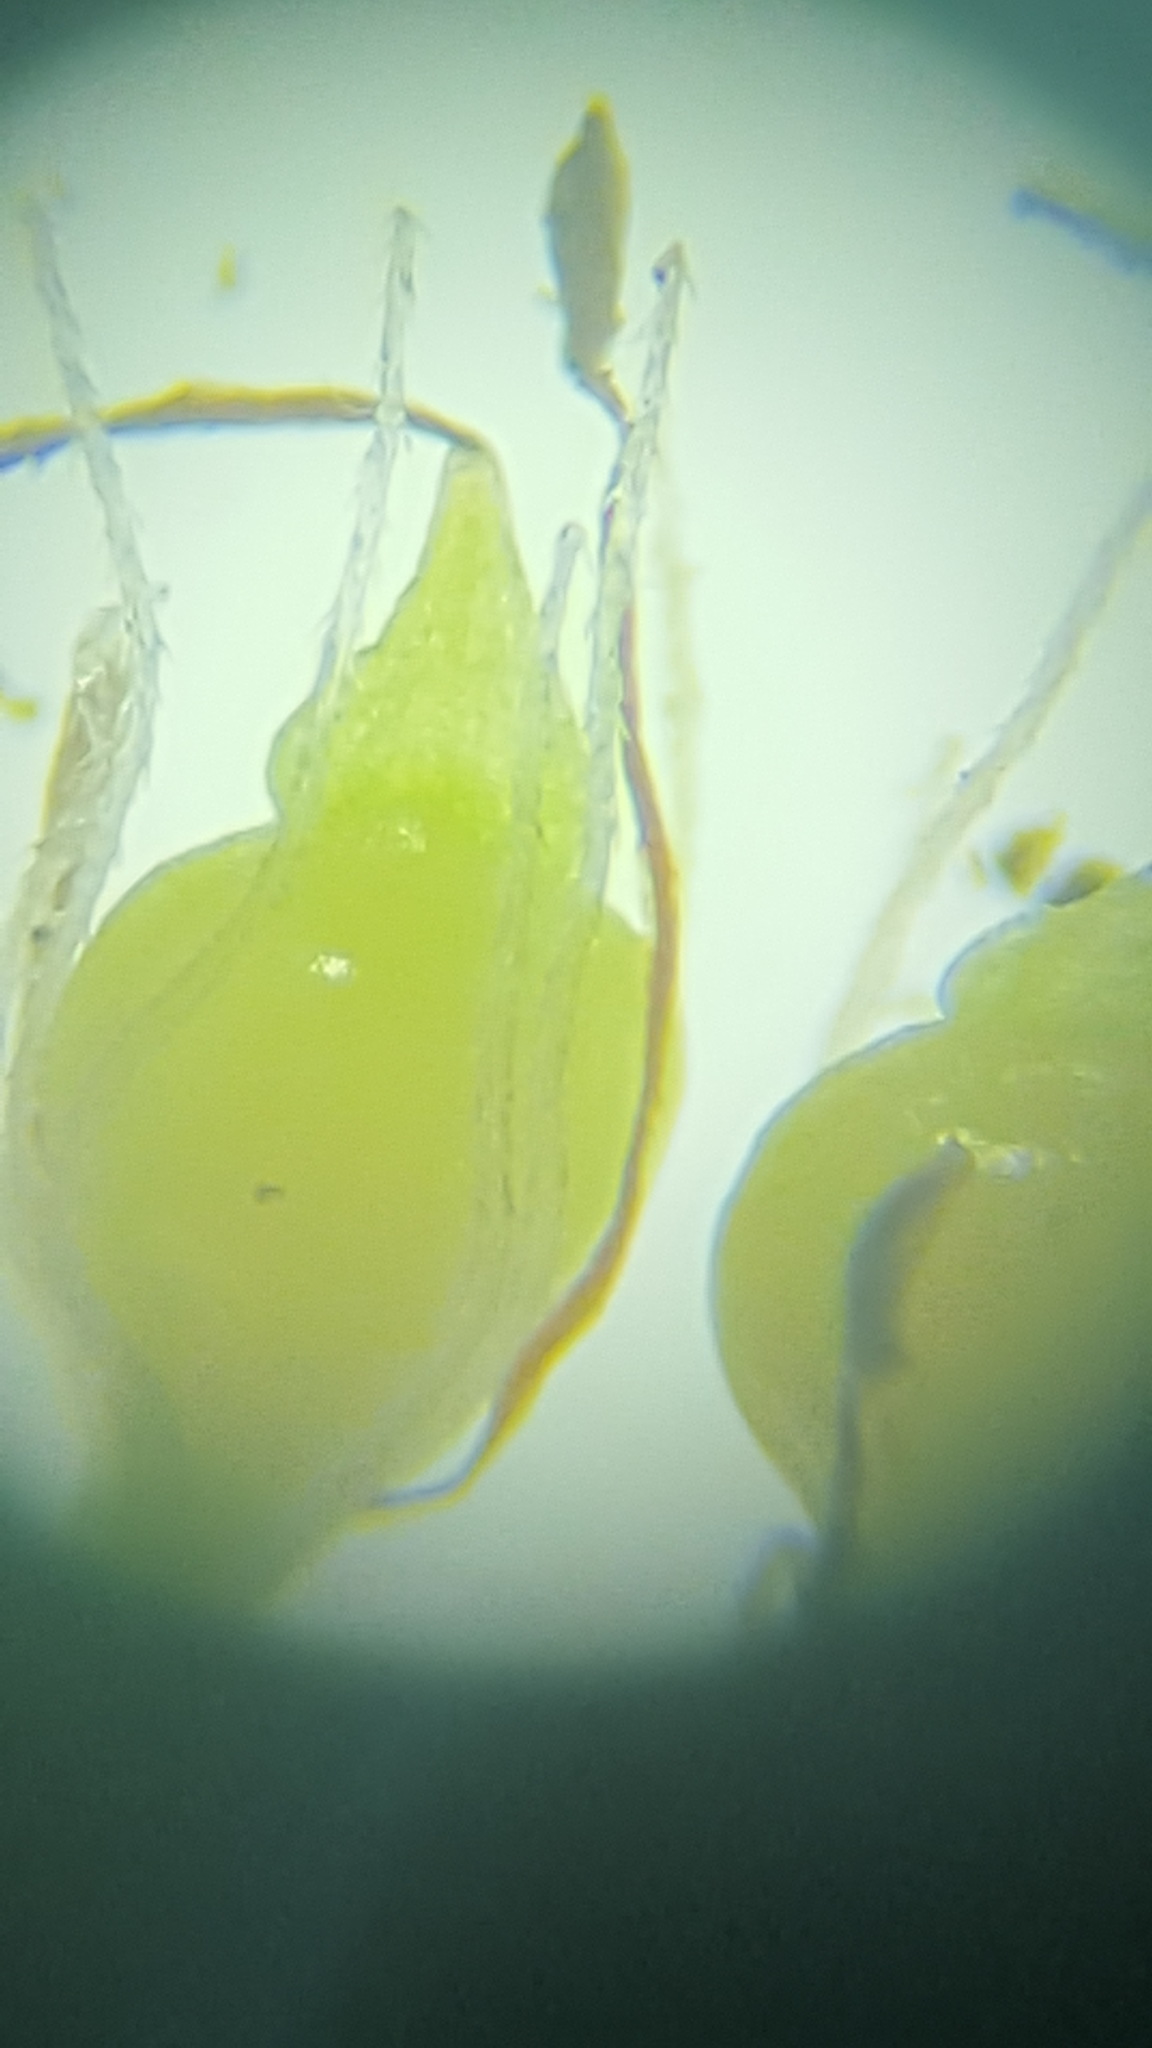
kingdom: Plantae
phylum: Tracheophyta
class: Liliopsida
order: Poales
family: Cyperaceae
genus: Eleocharis
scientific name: Eleocharis ovata
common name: Oval spike-rush
